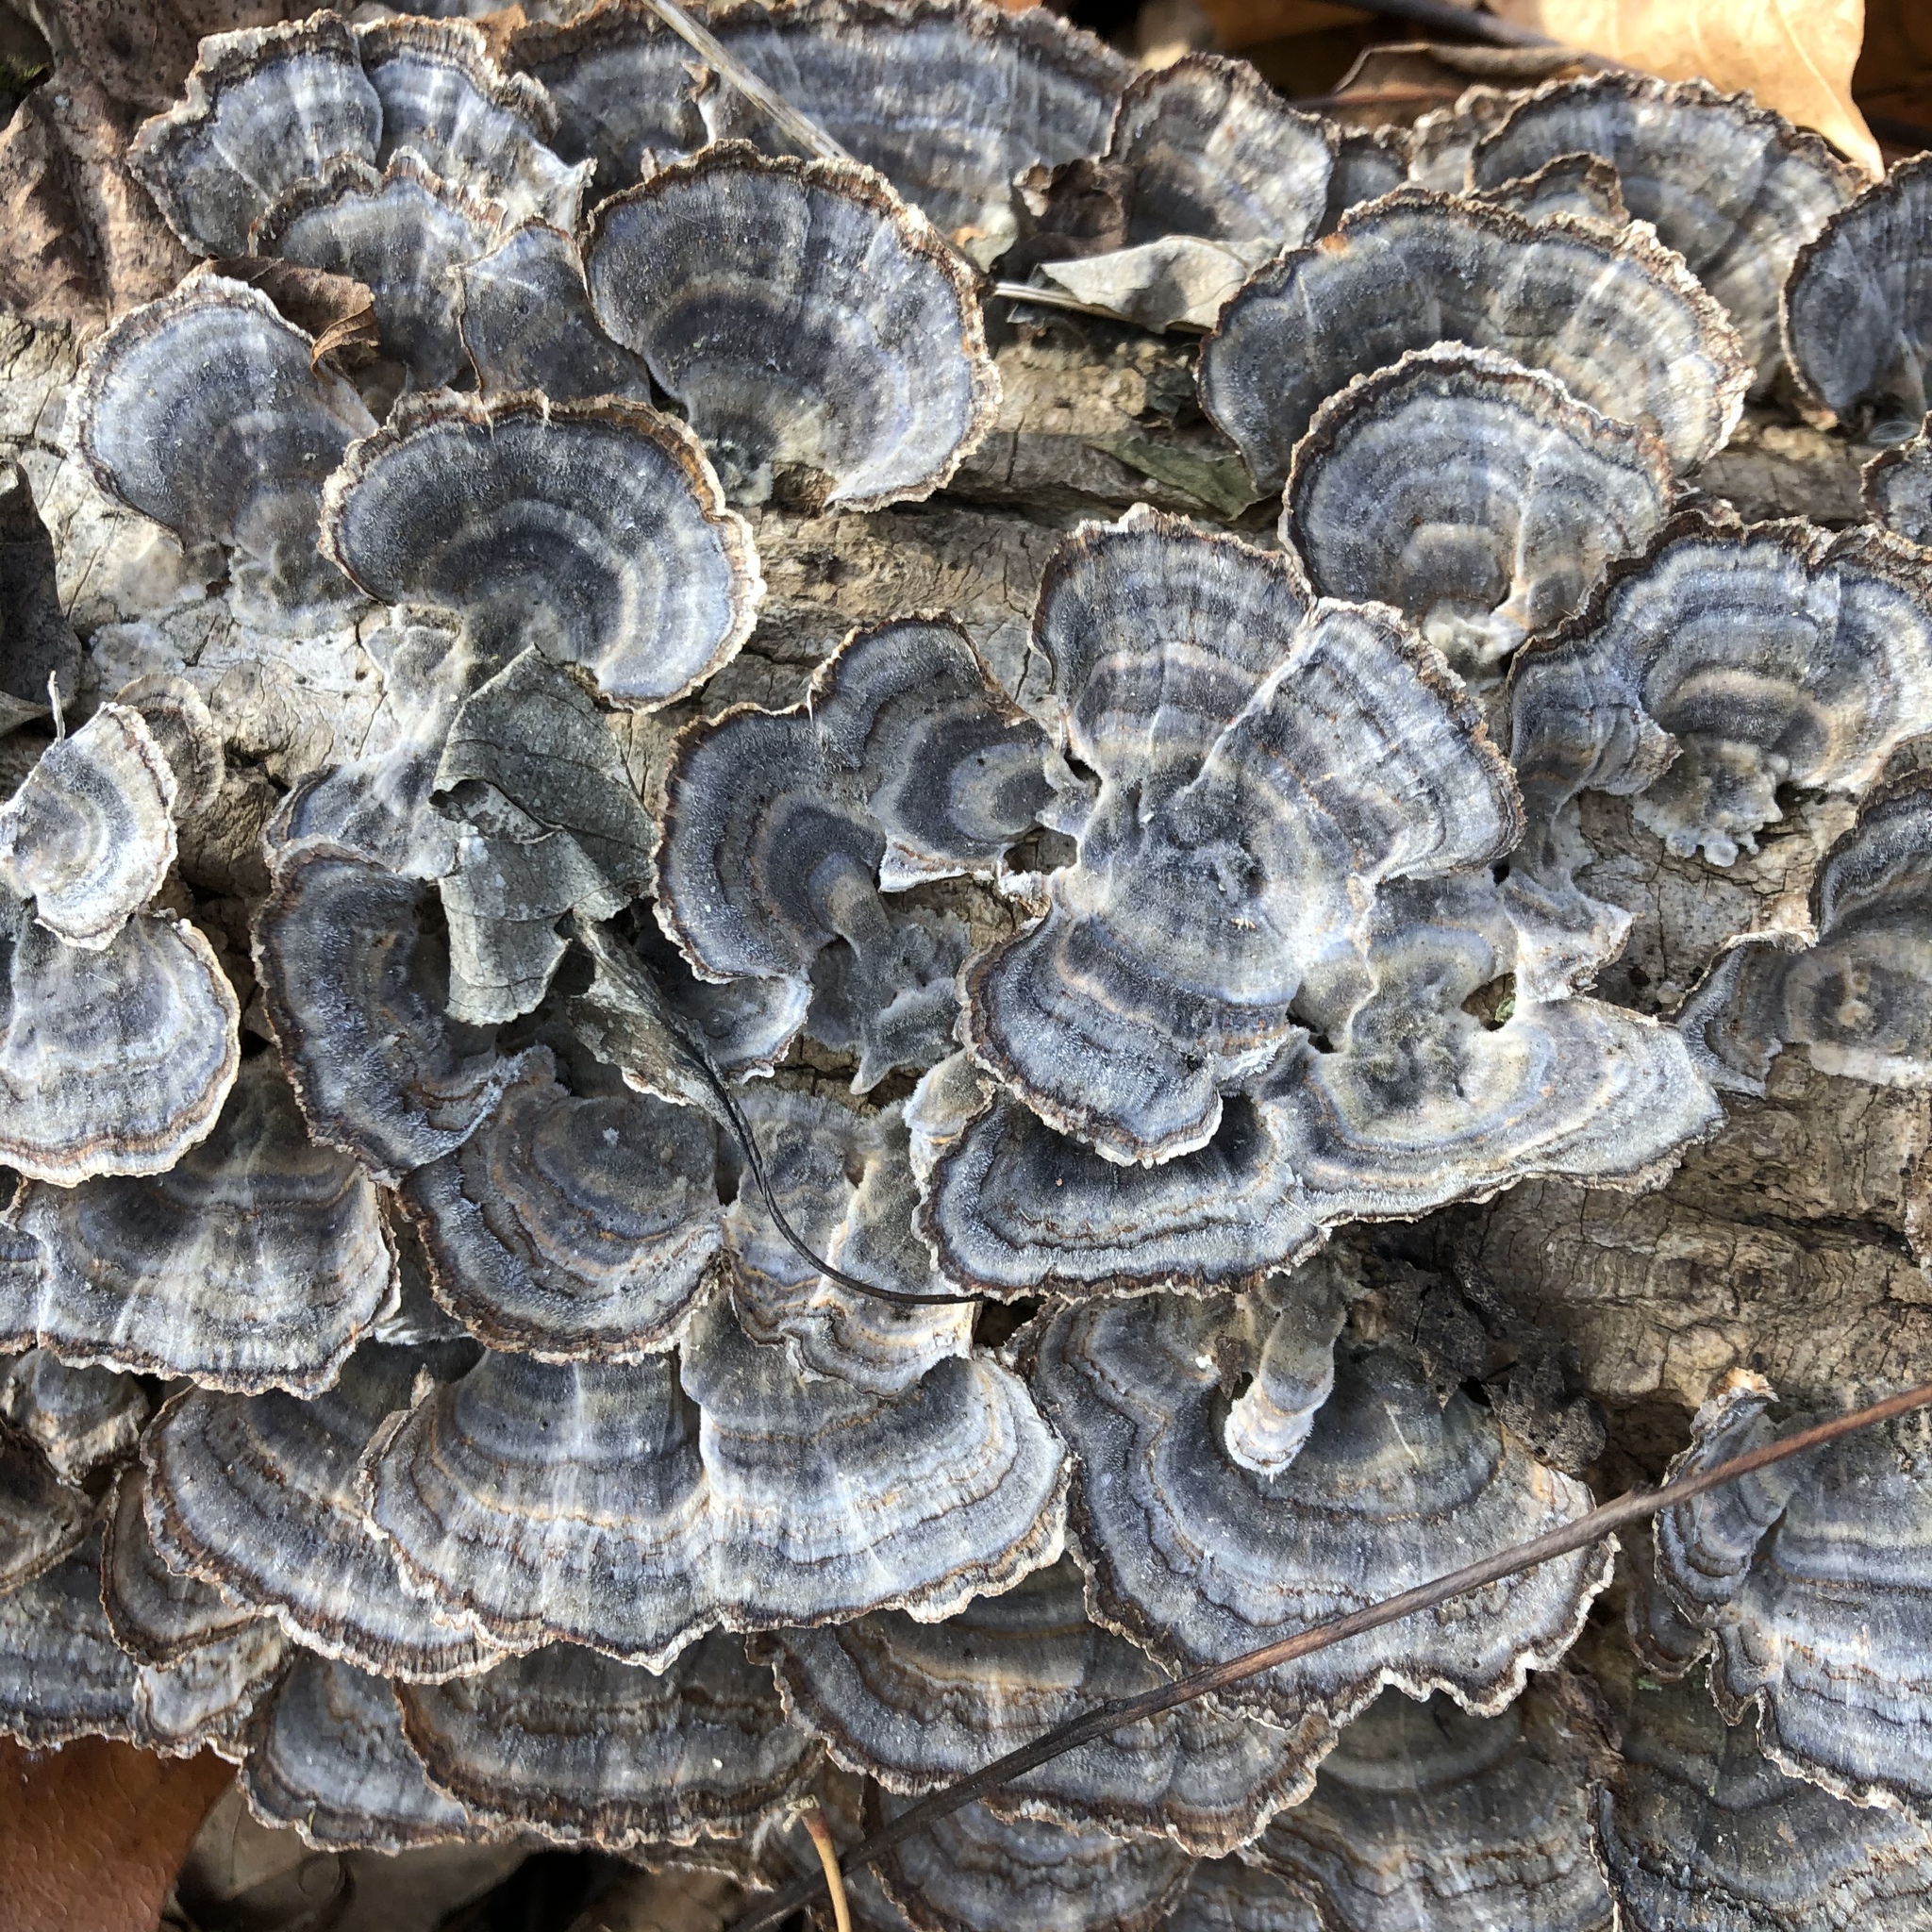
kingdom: Fungi
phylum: Basidiomycota
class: Agaricomycetes
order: Polyporales
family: Polyporaceae
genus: Trametes
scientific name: Trametes versicolor
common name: Turkeytail
